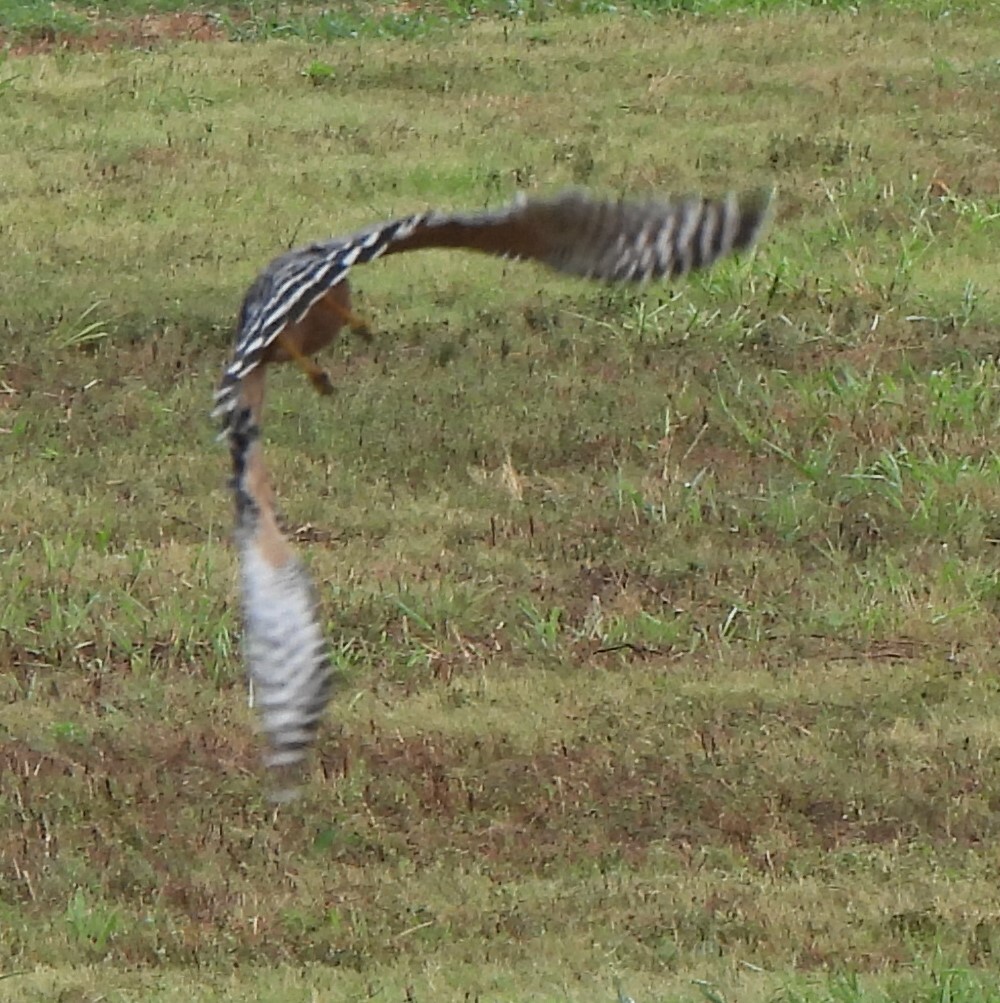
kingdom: Animalia
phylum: Chordata
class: Aves
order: Accipitriformes
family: Accipitridae
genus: Buteo
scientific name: Buteo lineatus
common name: Red-shouldered hawk
